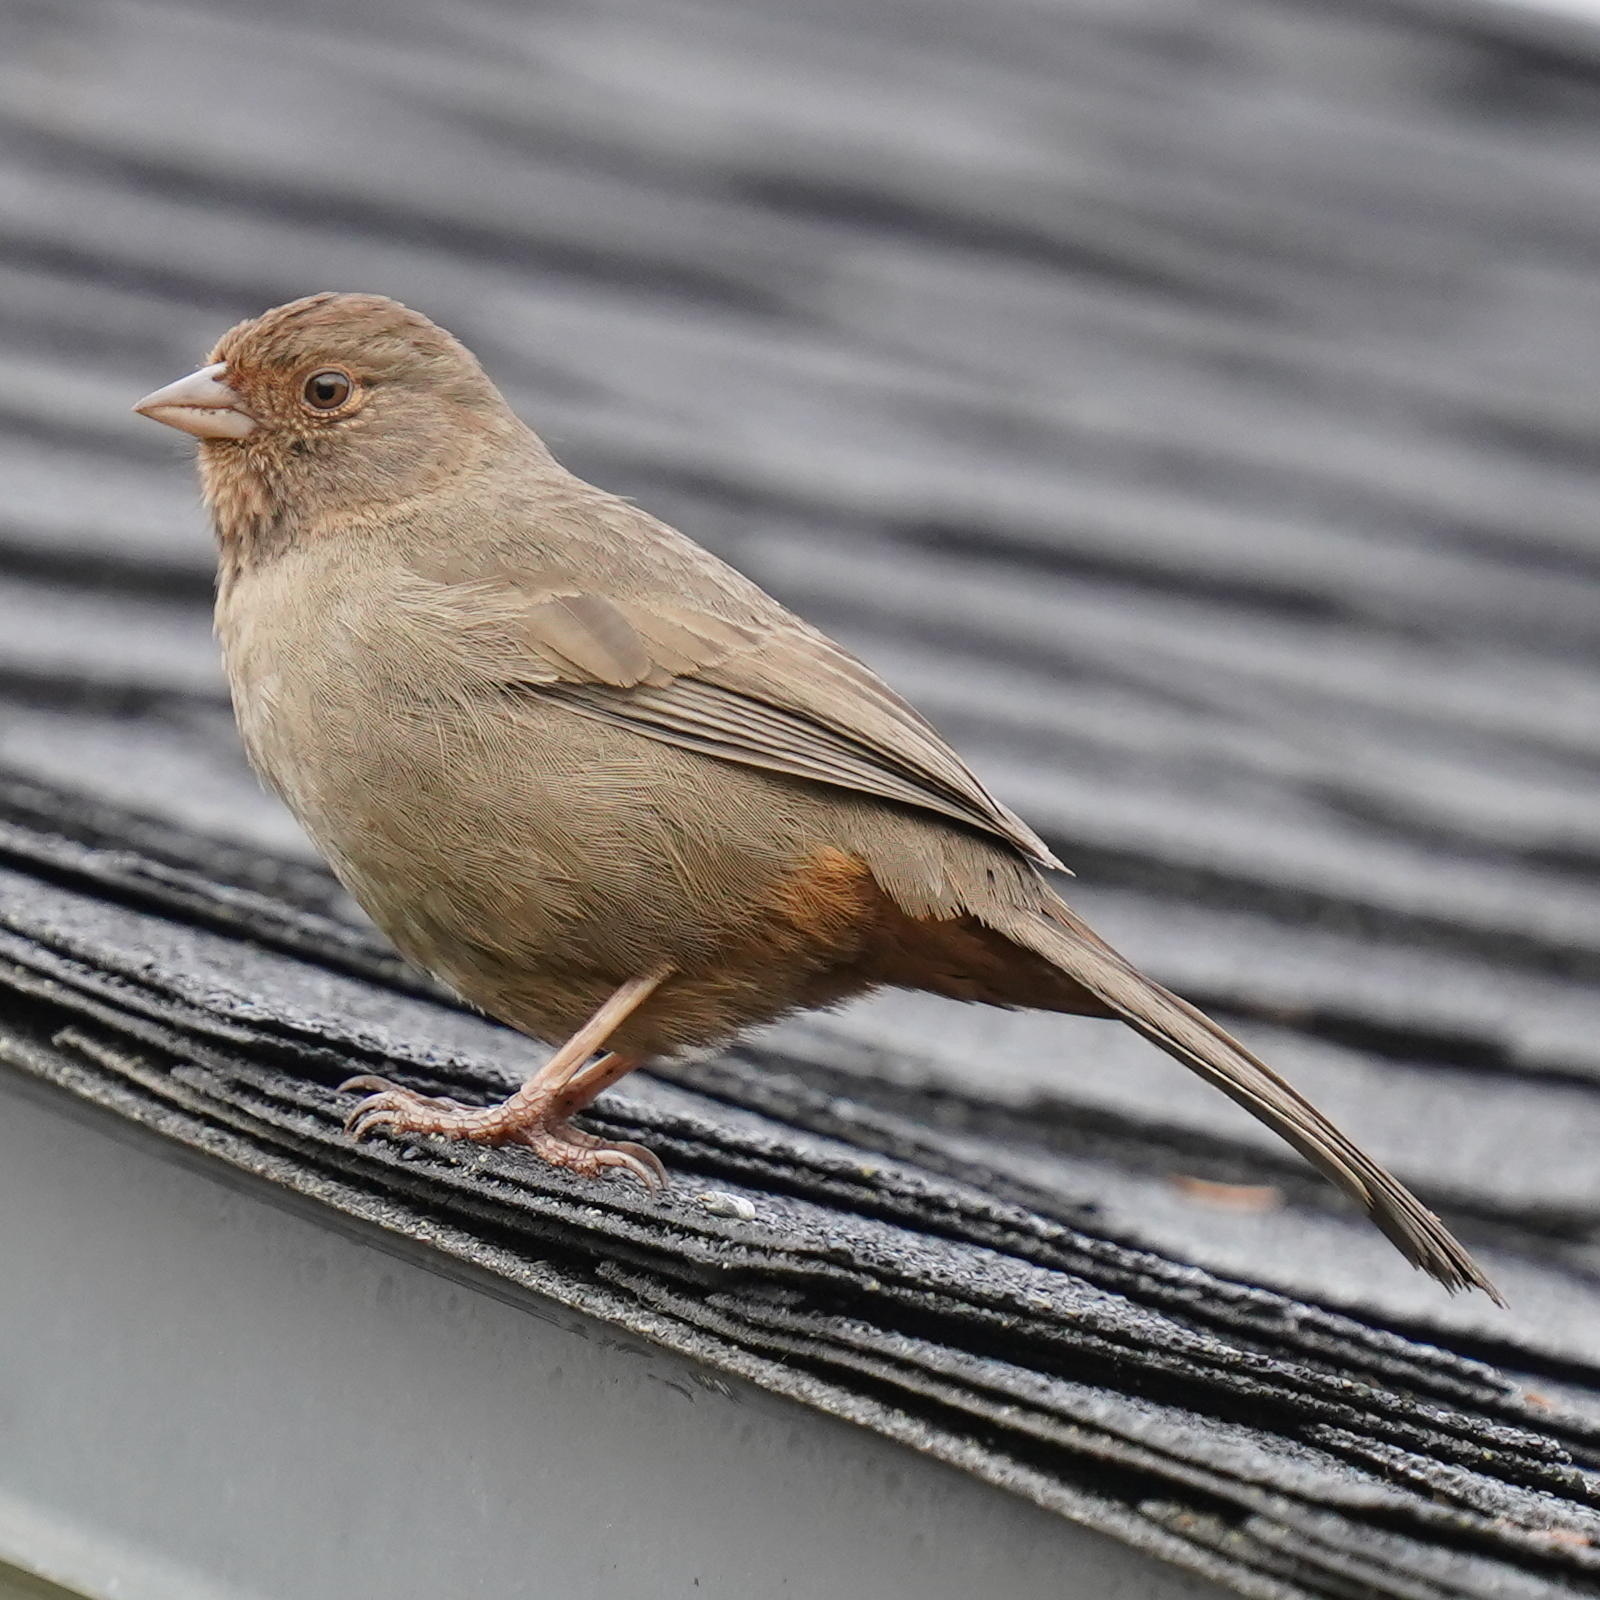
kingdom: Animalia
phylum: Chordata
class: Aves
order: Passeriformes
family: Passerellidae
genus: Melozone
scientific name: Melozone crissalis
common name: California towhee
